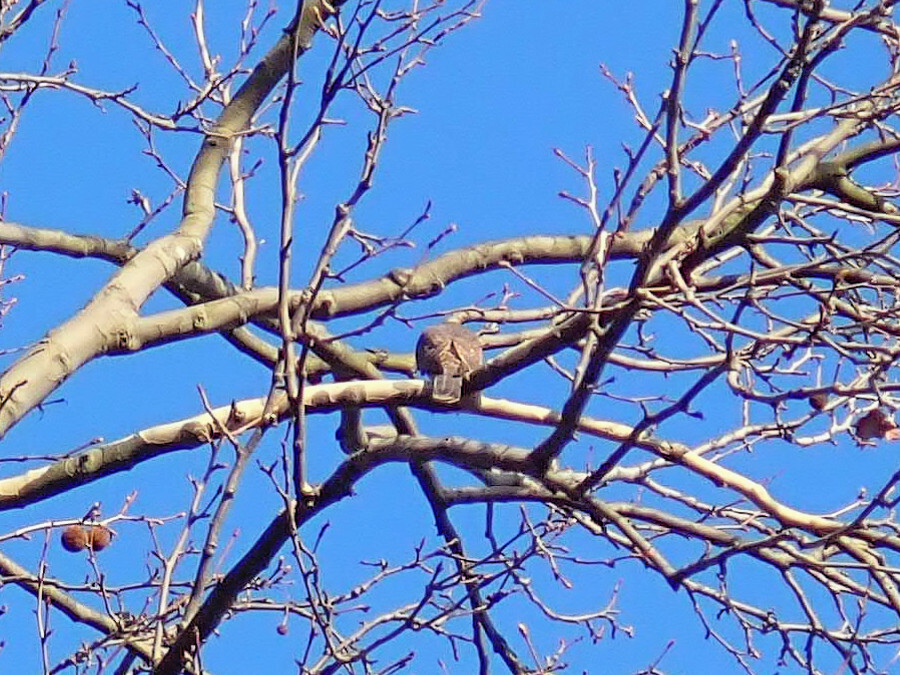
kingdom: Animalia
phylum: Chordata
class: Aves
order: Accipitriformes
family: Accipitridae
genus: Accipiter
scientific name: Accipiter nisus
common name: Eurasian sparrowhawk
